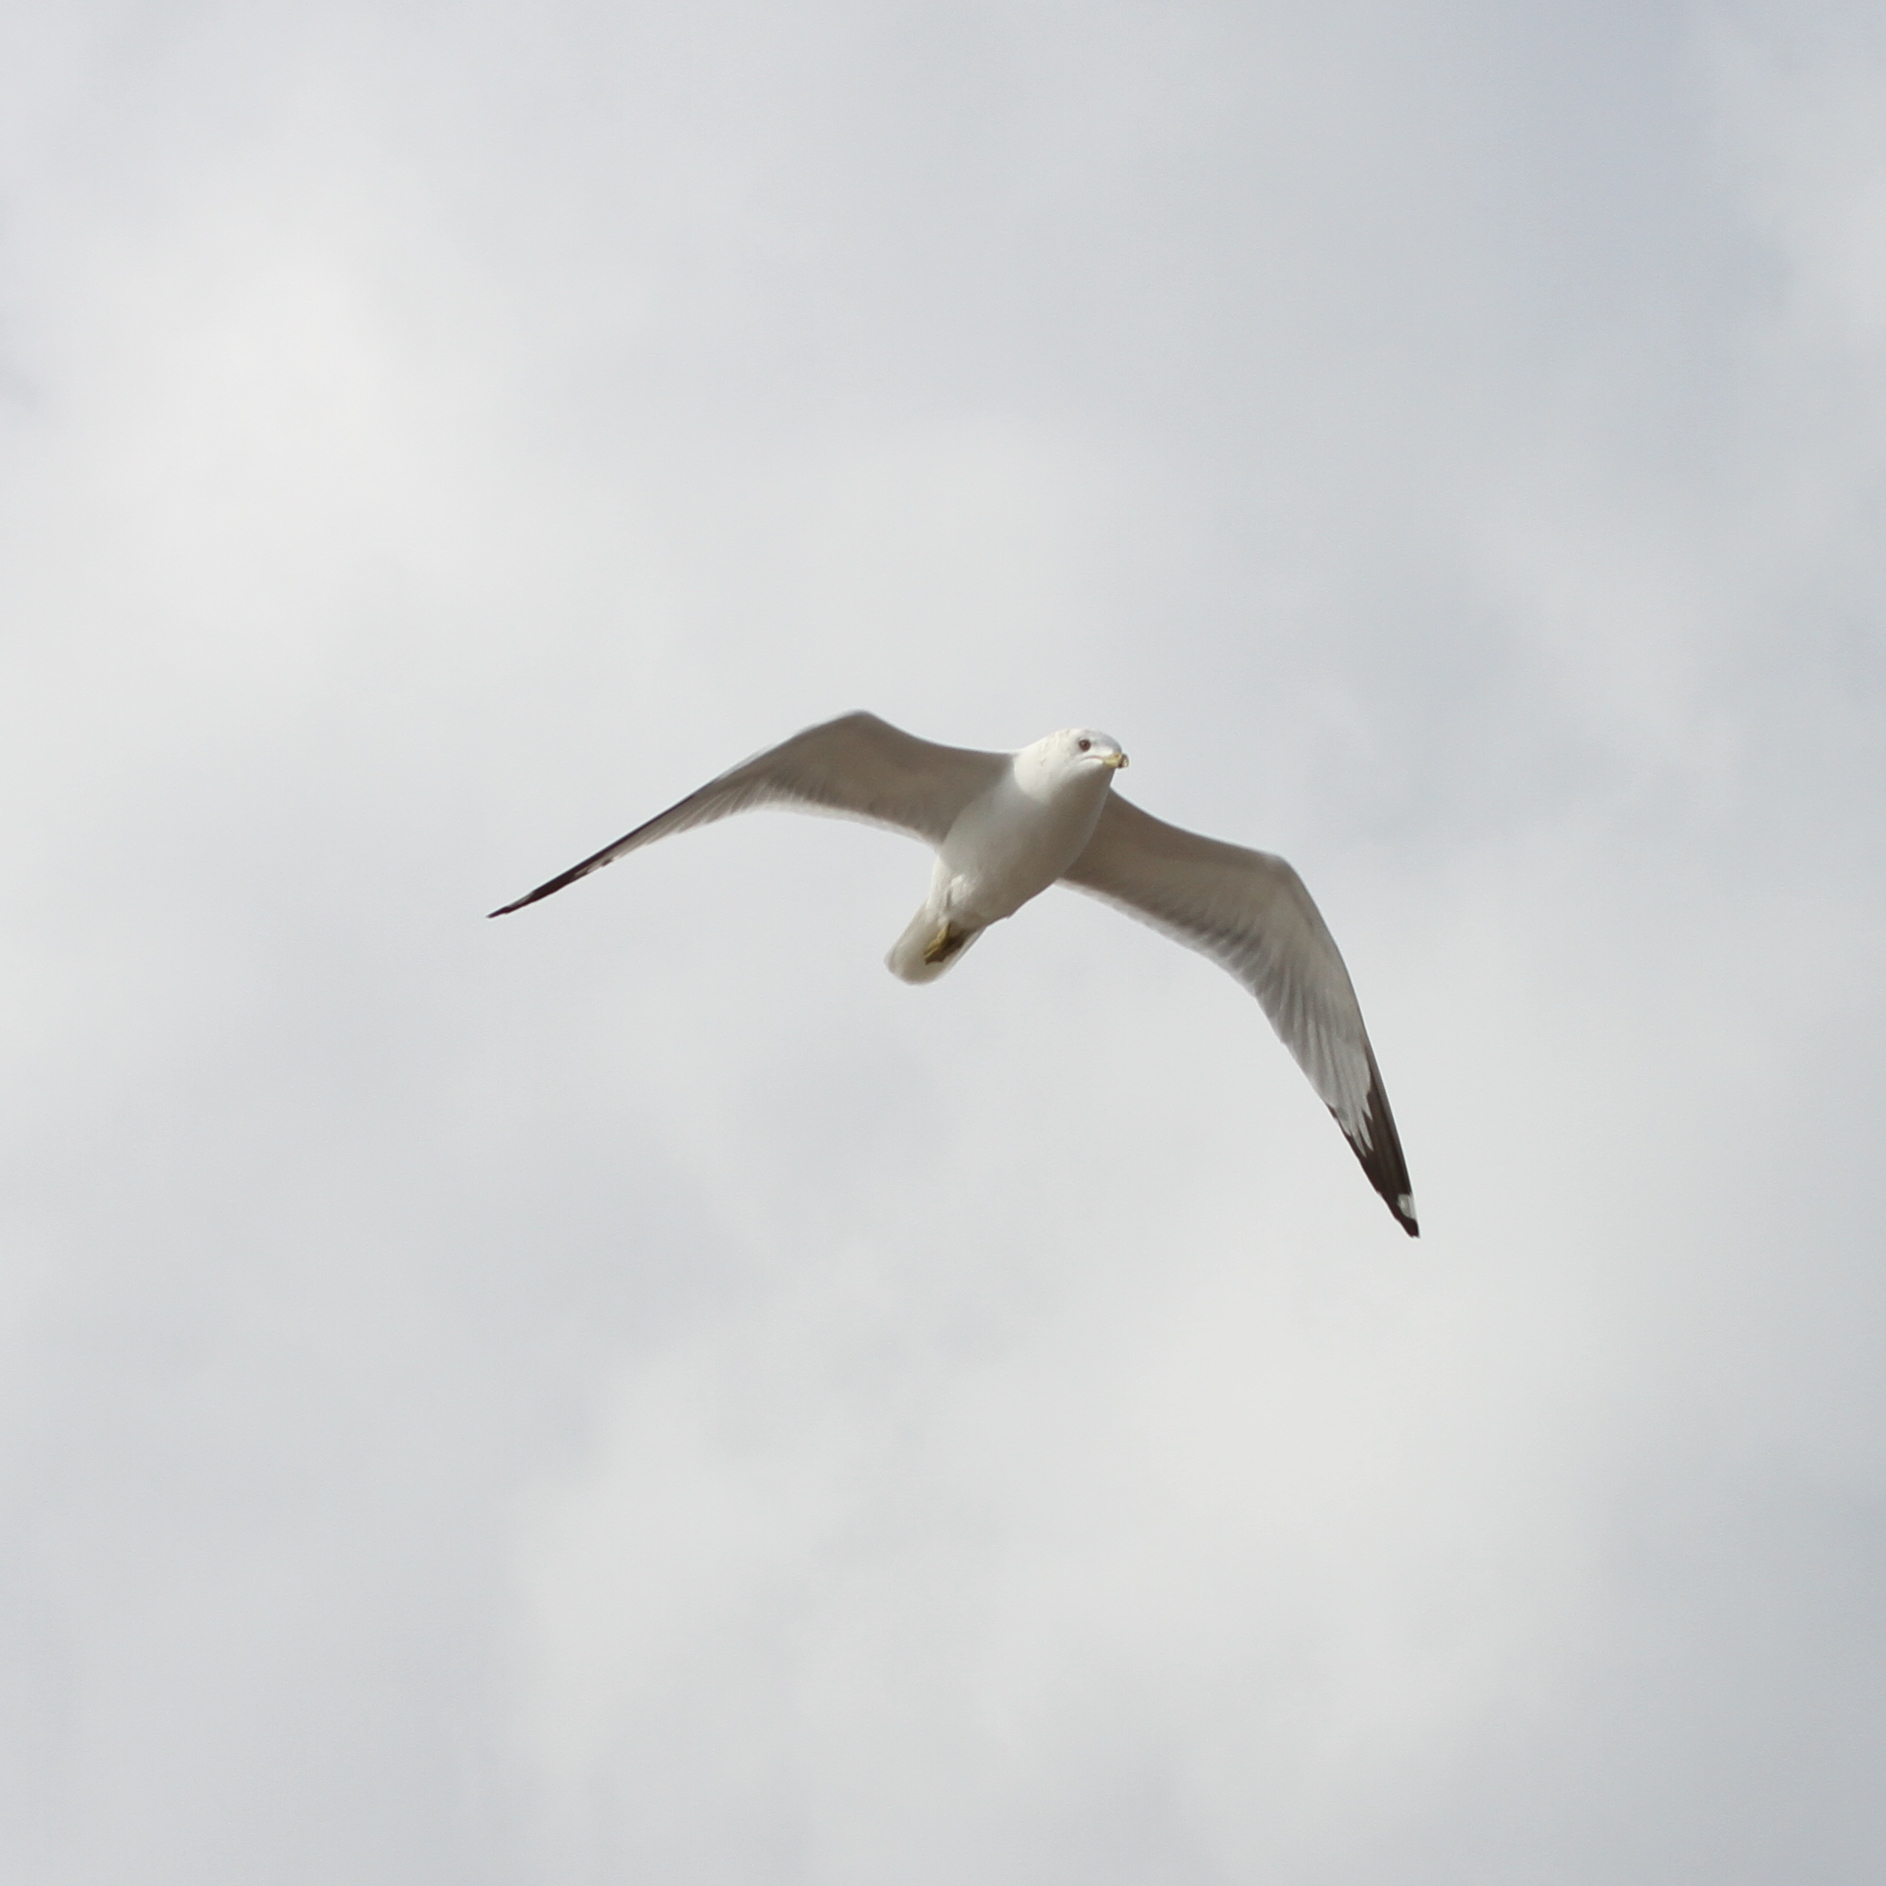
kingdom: Animalia
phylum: Chordata
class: Aves
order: Charadriiformes
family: Laridae
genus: Larus
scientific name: Larus delawarensis
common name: Ring-billed gull
